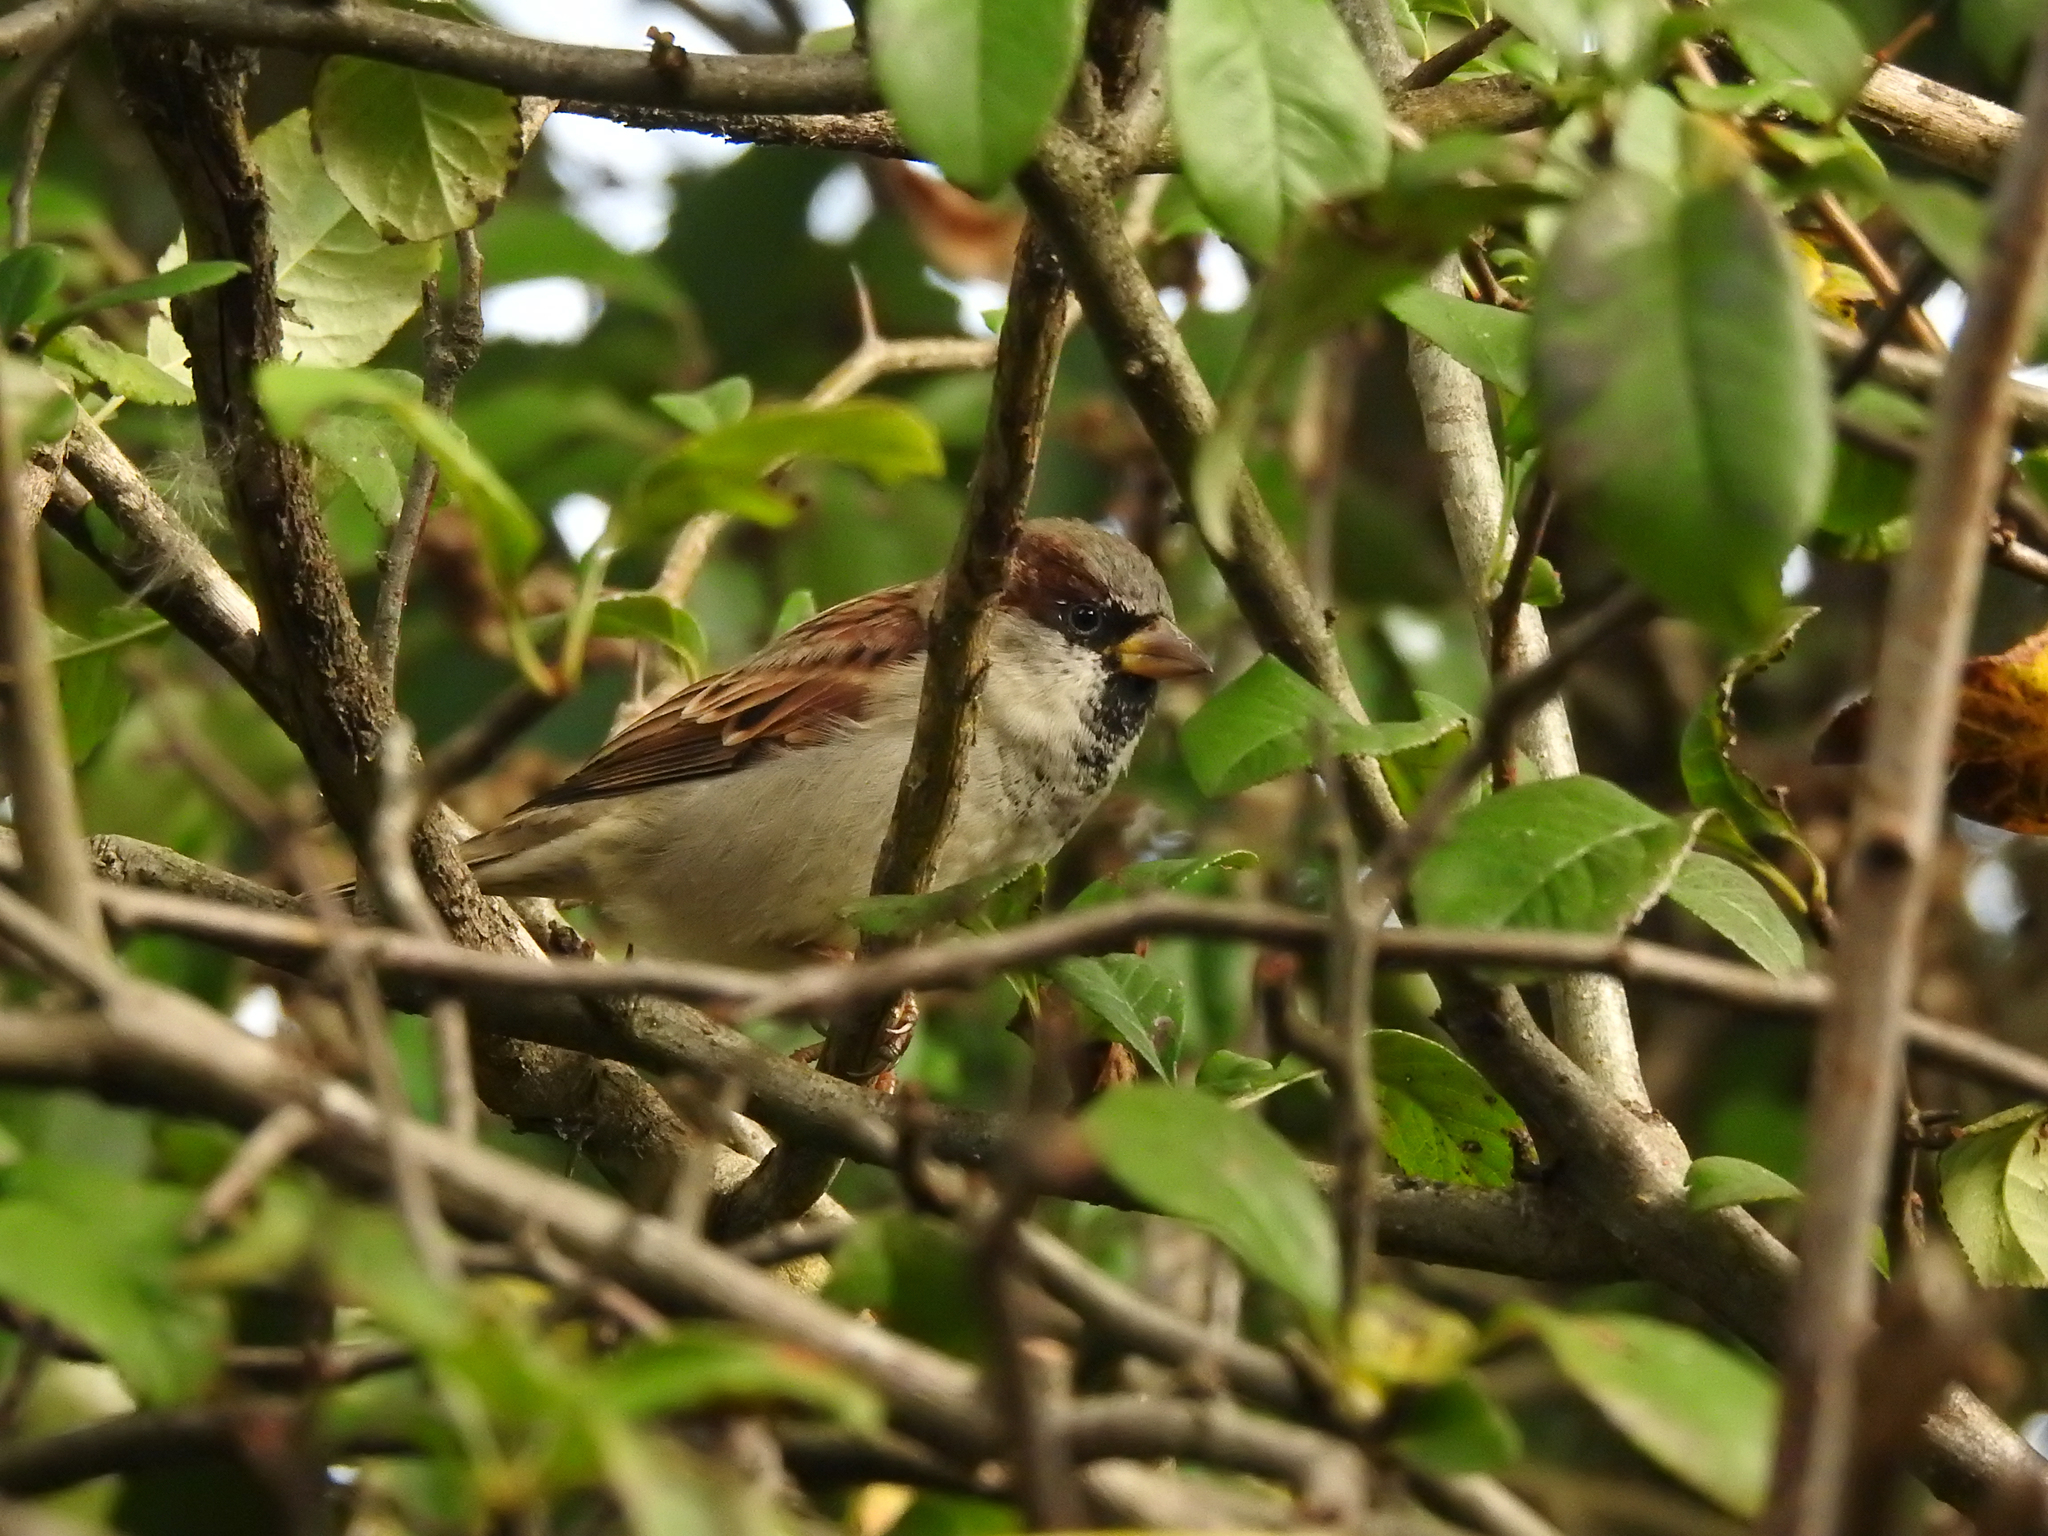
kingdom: Animalia
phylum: Chordata
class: Aves
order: Passeriformes
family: Passeridae
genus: Passer
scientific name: Passer domesticus
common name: House sparrow
